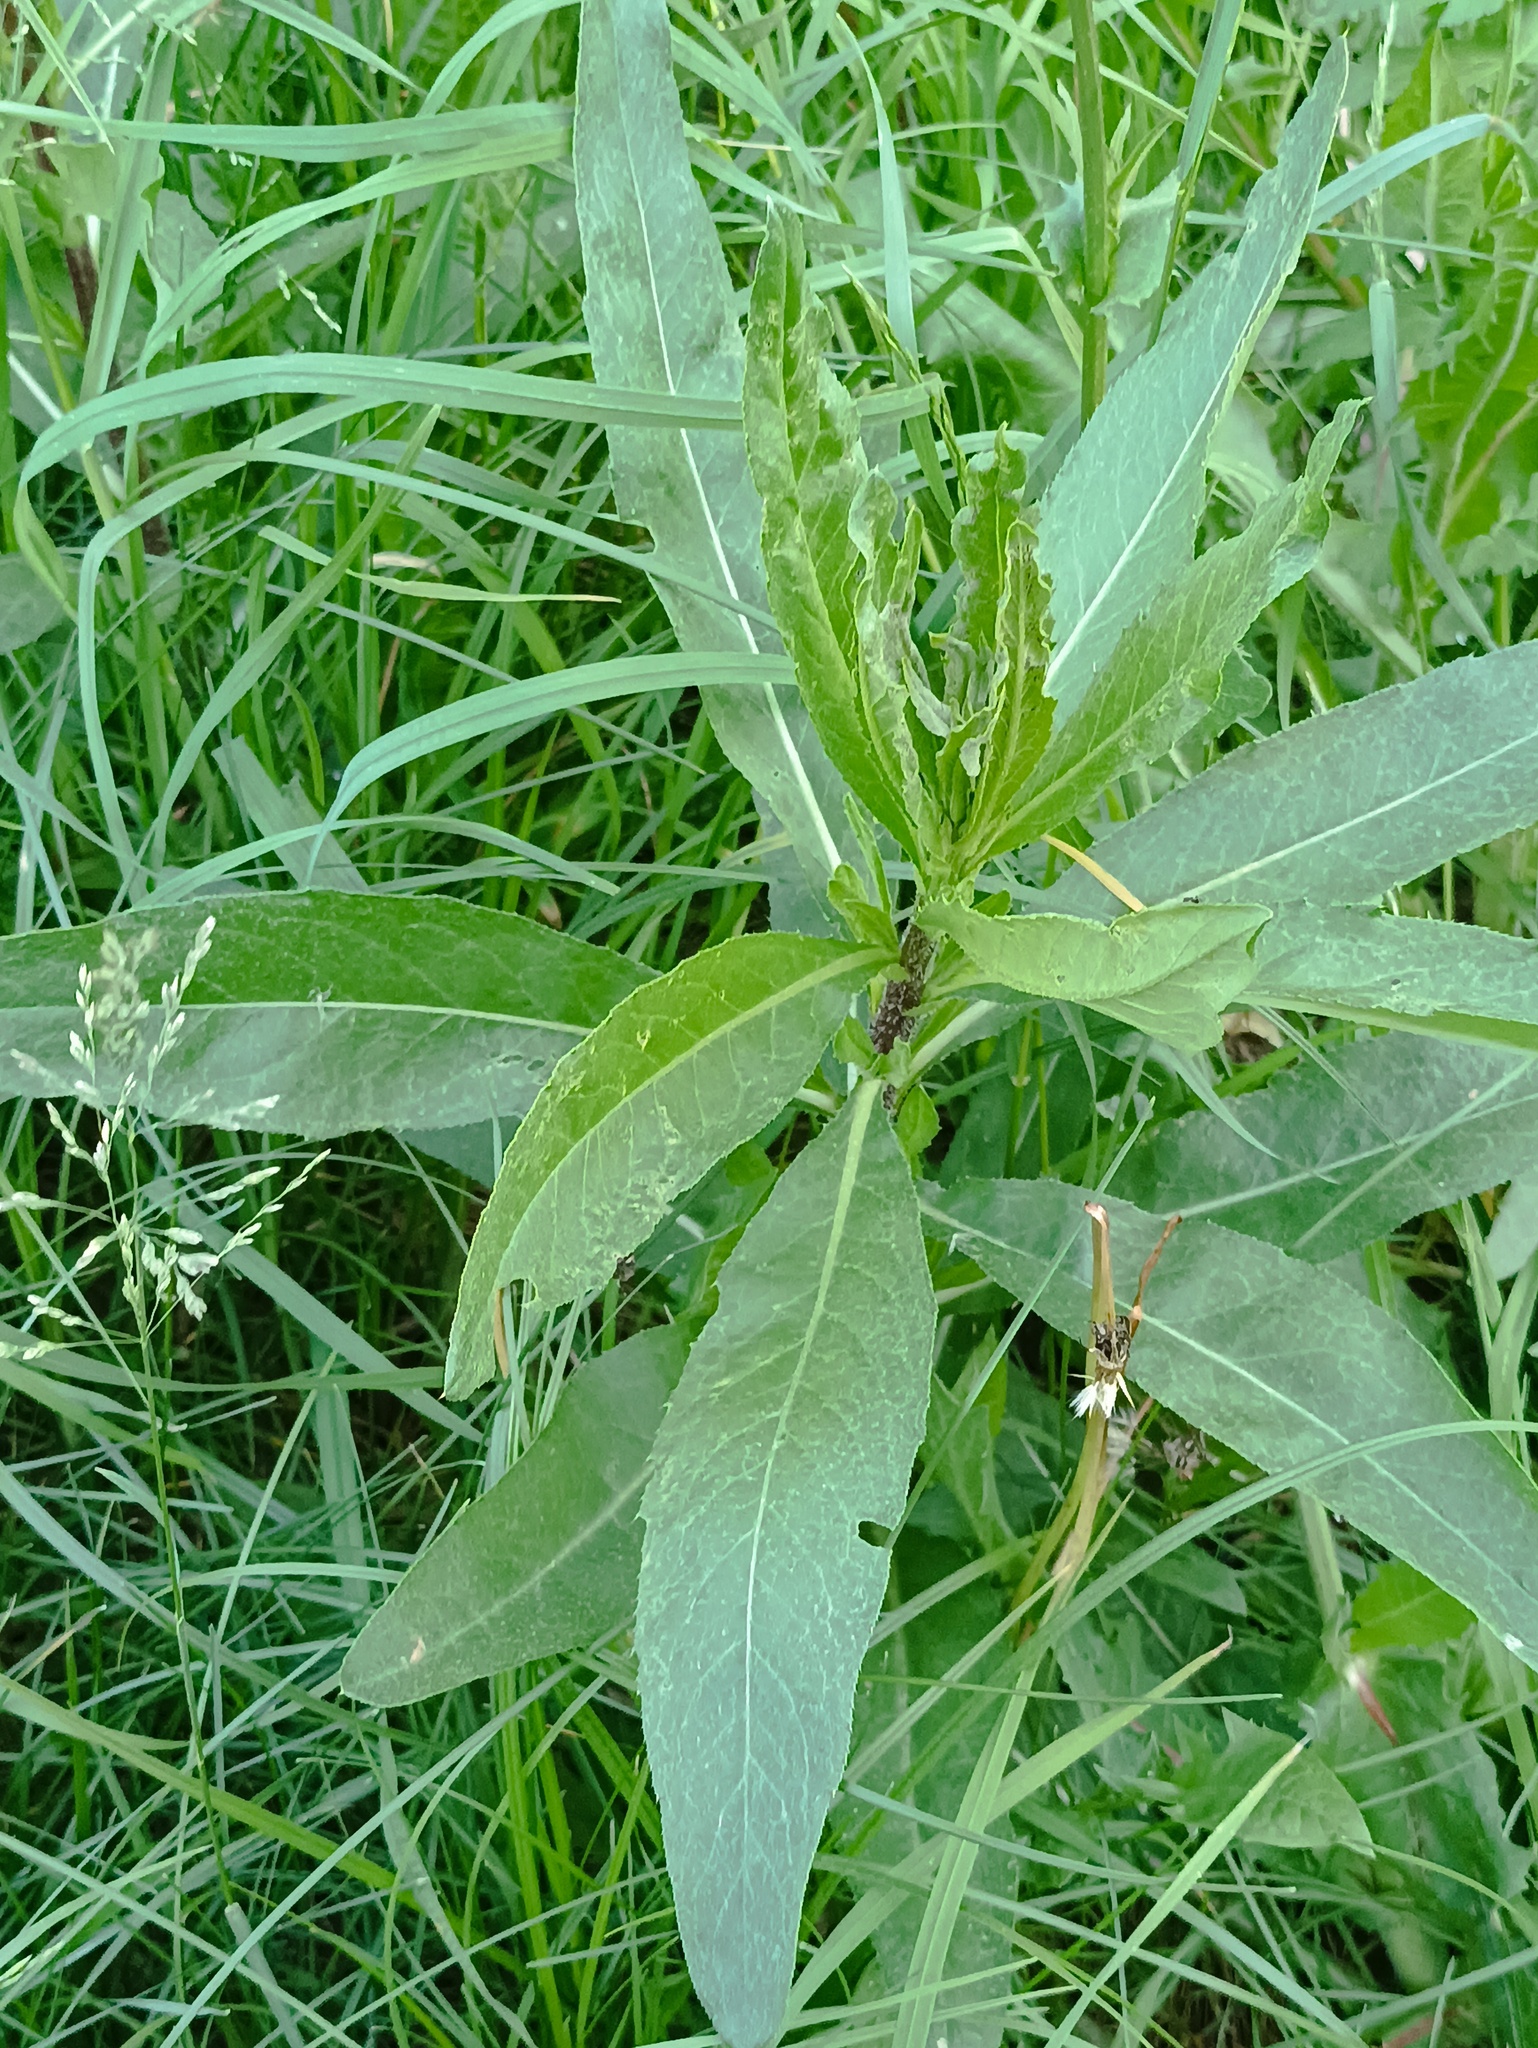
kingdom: Plantae
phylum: Tracheophyta
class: Magnoliopsida
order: Asterales
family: Asteraceae
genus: Cirsium
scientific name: Cirsium arvense
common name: Creeping thistle
